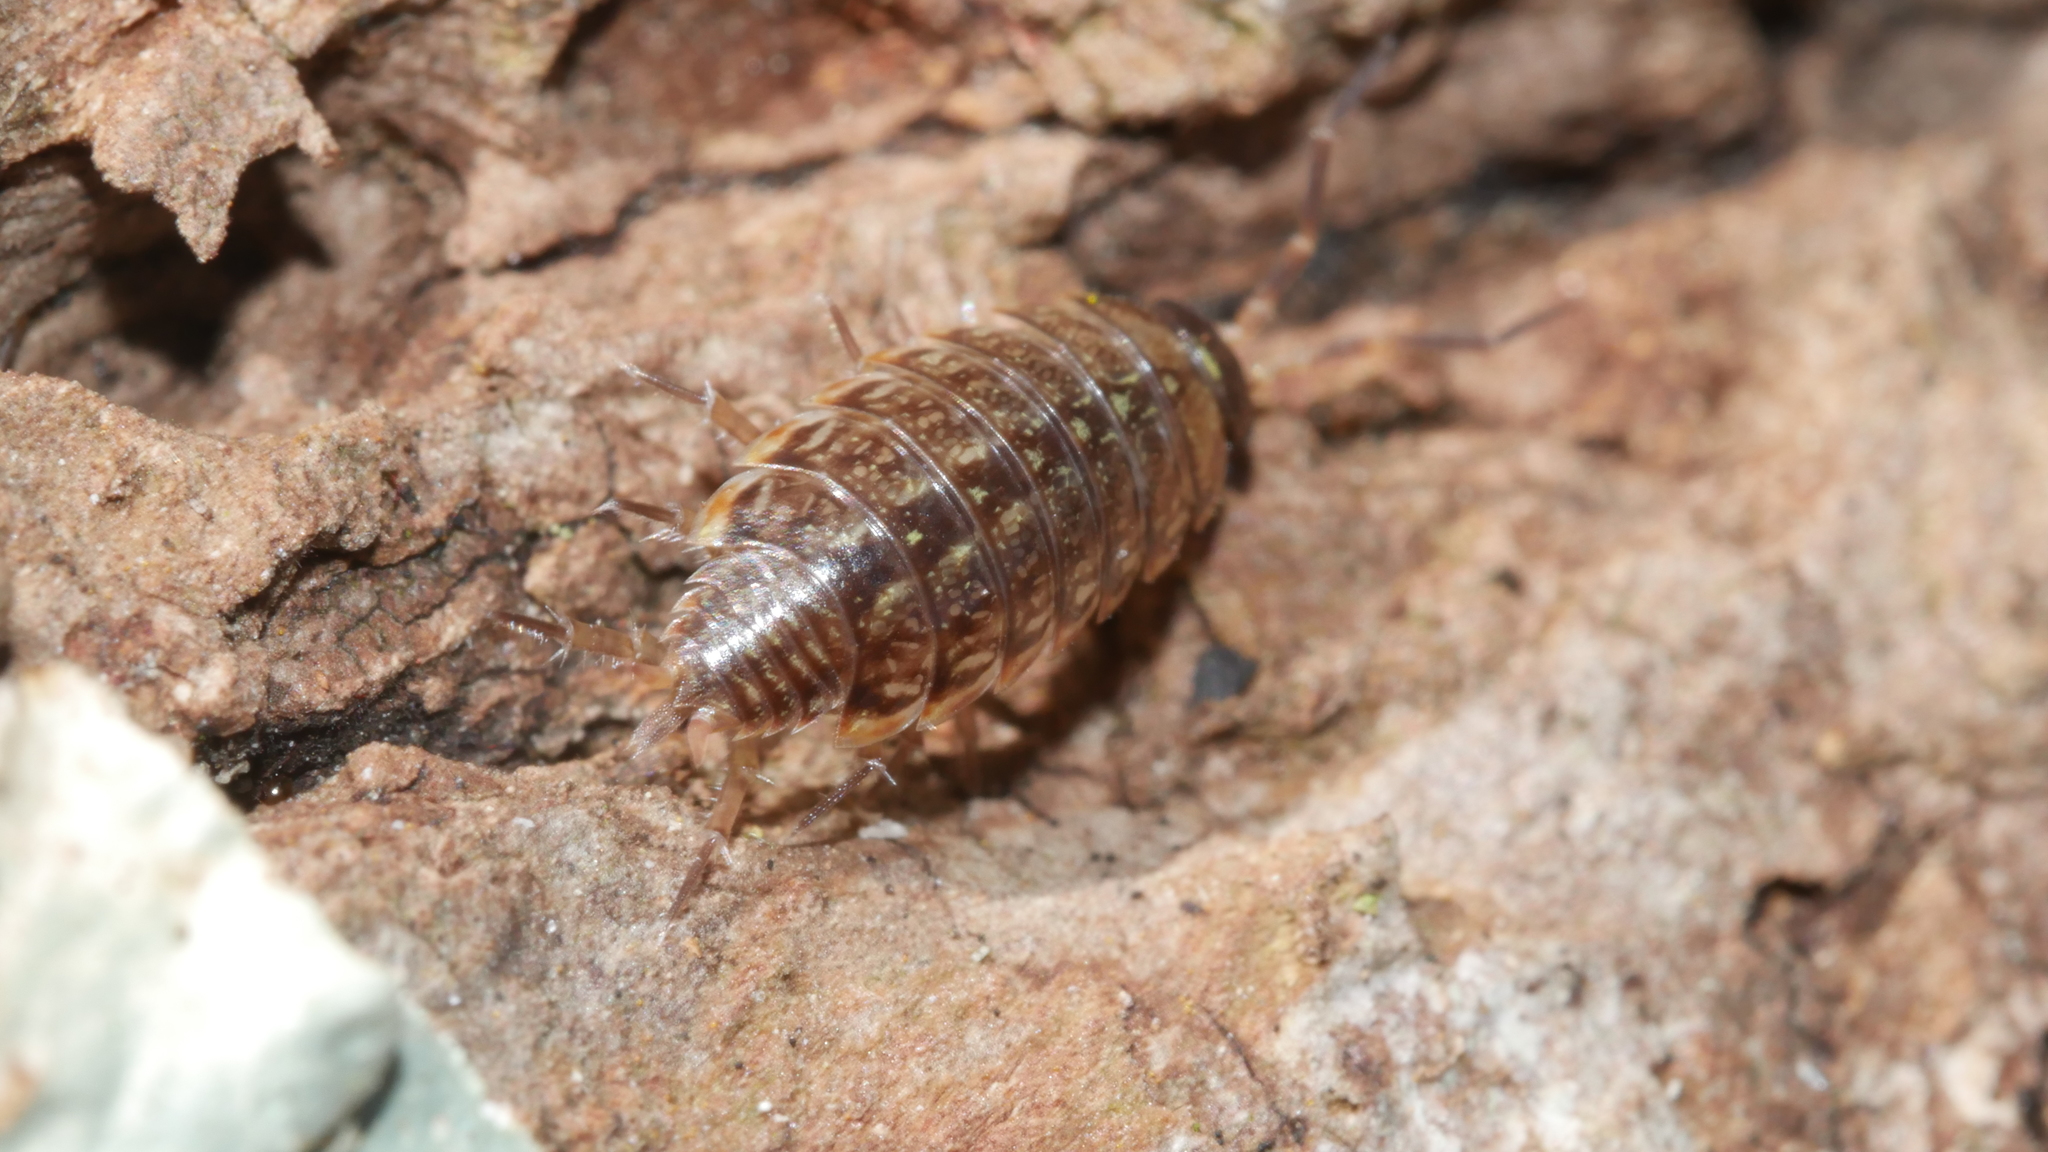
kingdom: Animalia
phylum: Arthropoda
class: Malacostraca
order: Isopoda
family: Philosciidae
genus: Philoscia
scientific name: Philoscia muscorum
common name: Common striped woodlouse
